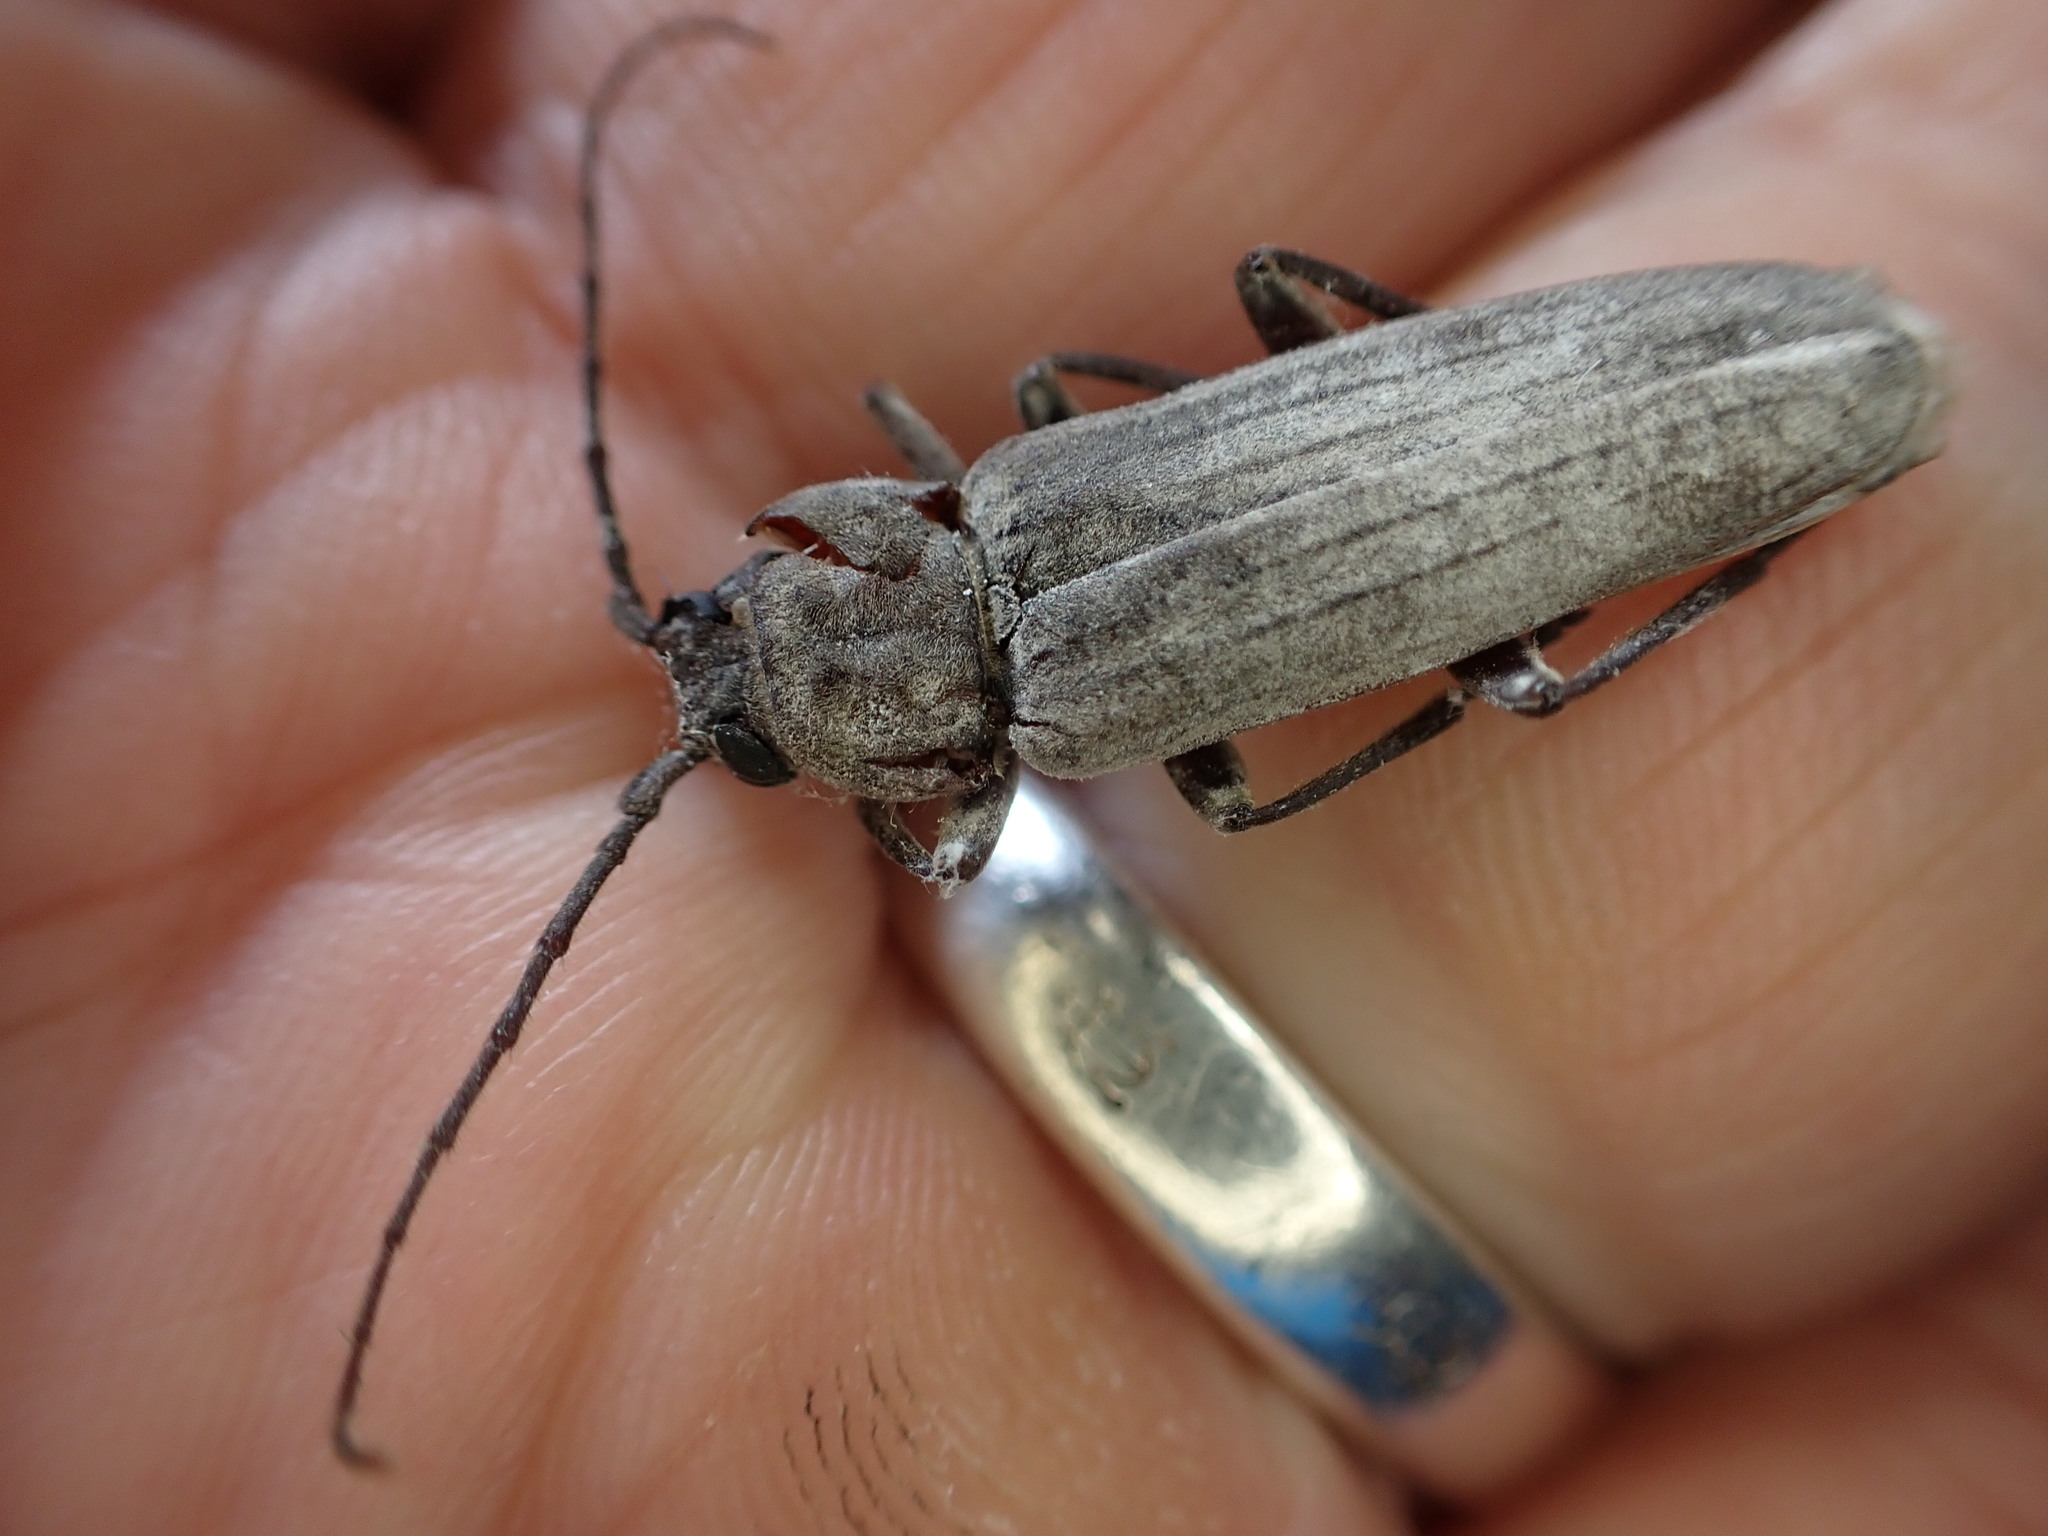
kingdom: Animalia
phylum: Arthropoda
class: Insecta
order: Coleoptera
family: Cerambycidae
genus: Arhopalus
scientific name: Arhopalus ferus
